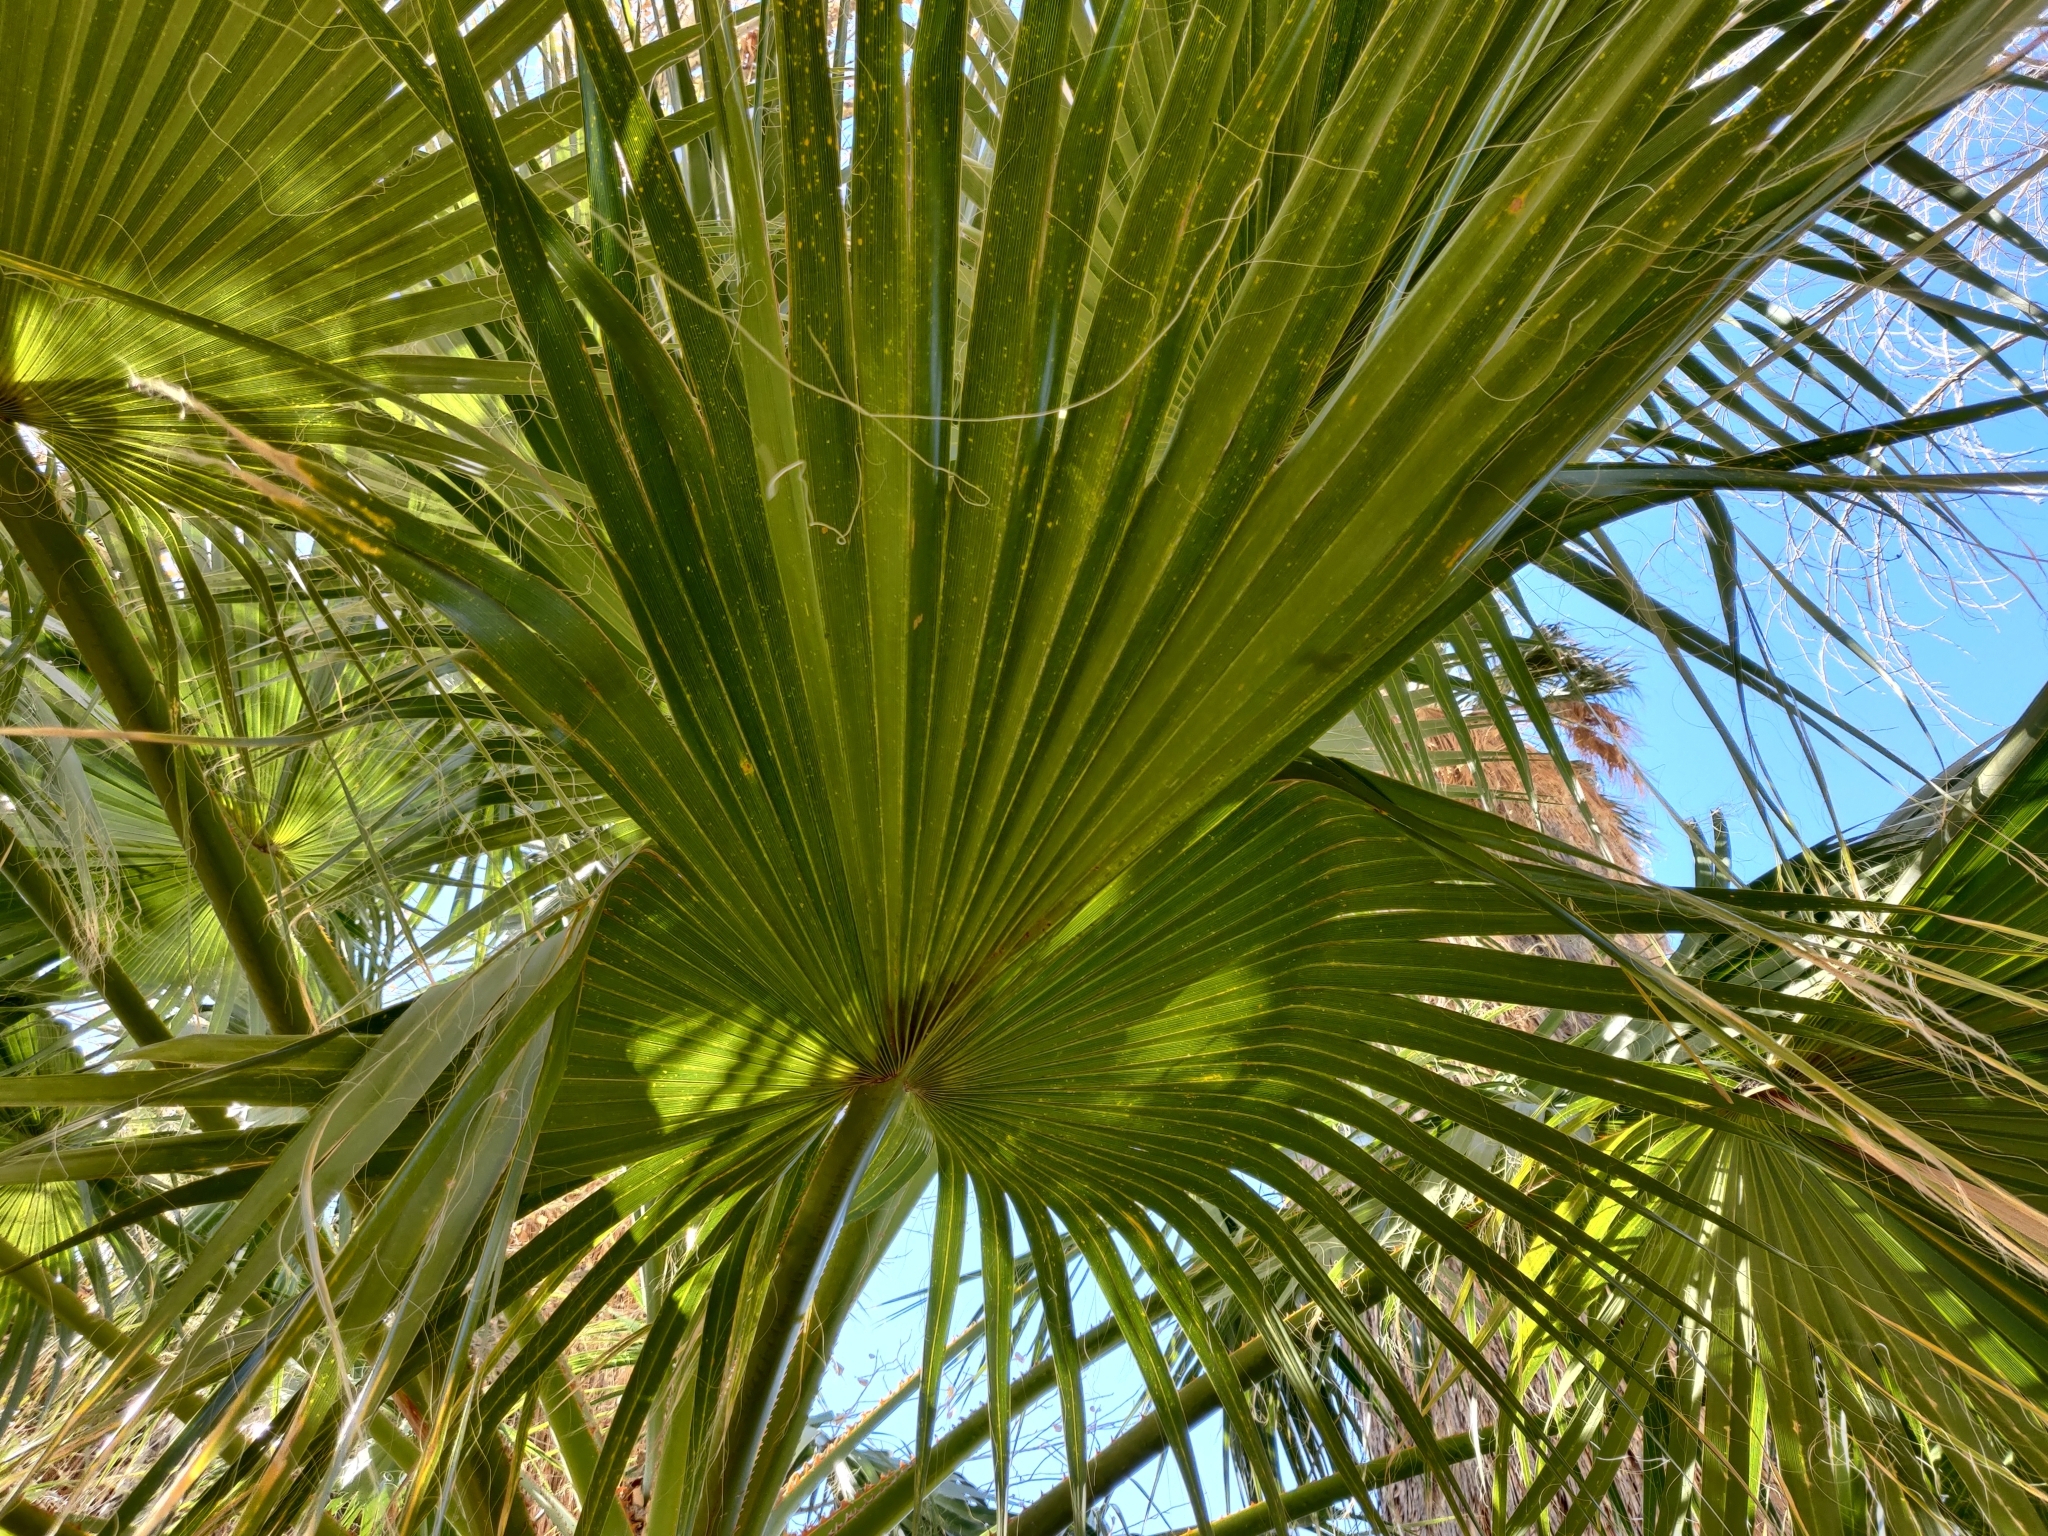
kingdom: Plantae
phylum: Tracheophyta
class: Liliopsida
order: Arecales
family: Arecaceae
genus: Washingtonia
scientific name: Washingtonia filifera
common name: California fan palm
